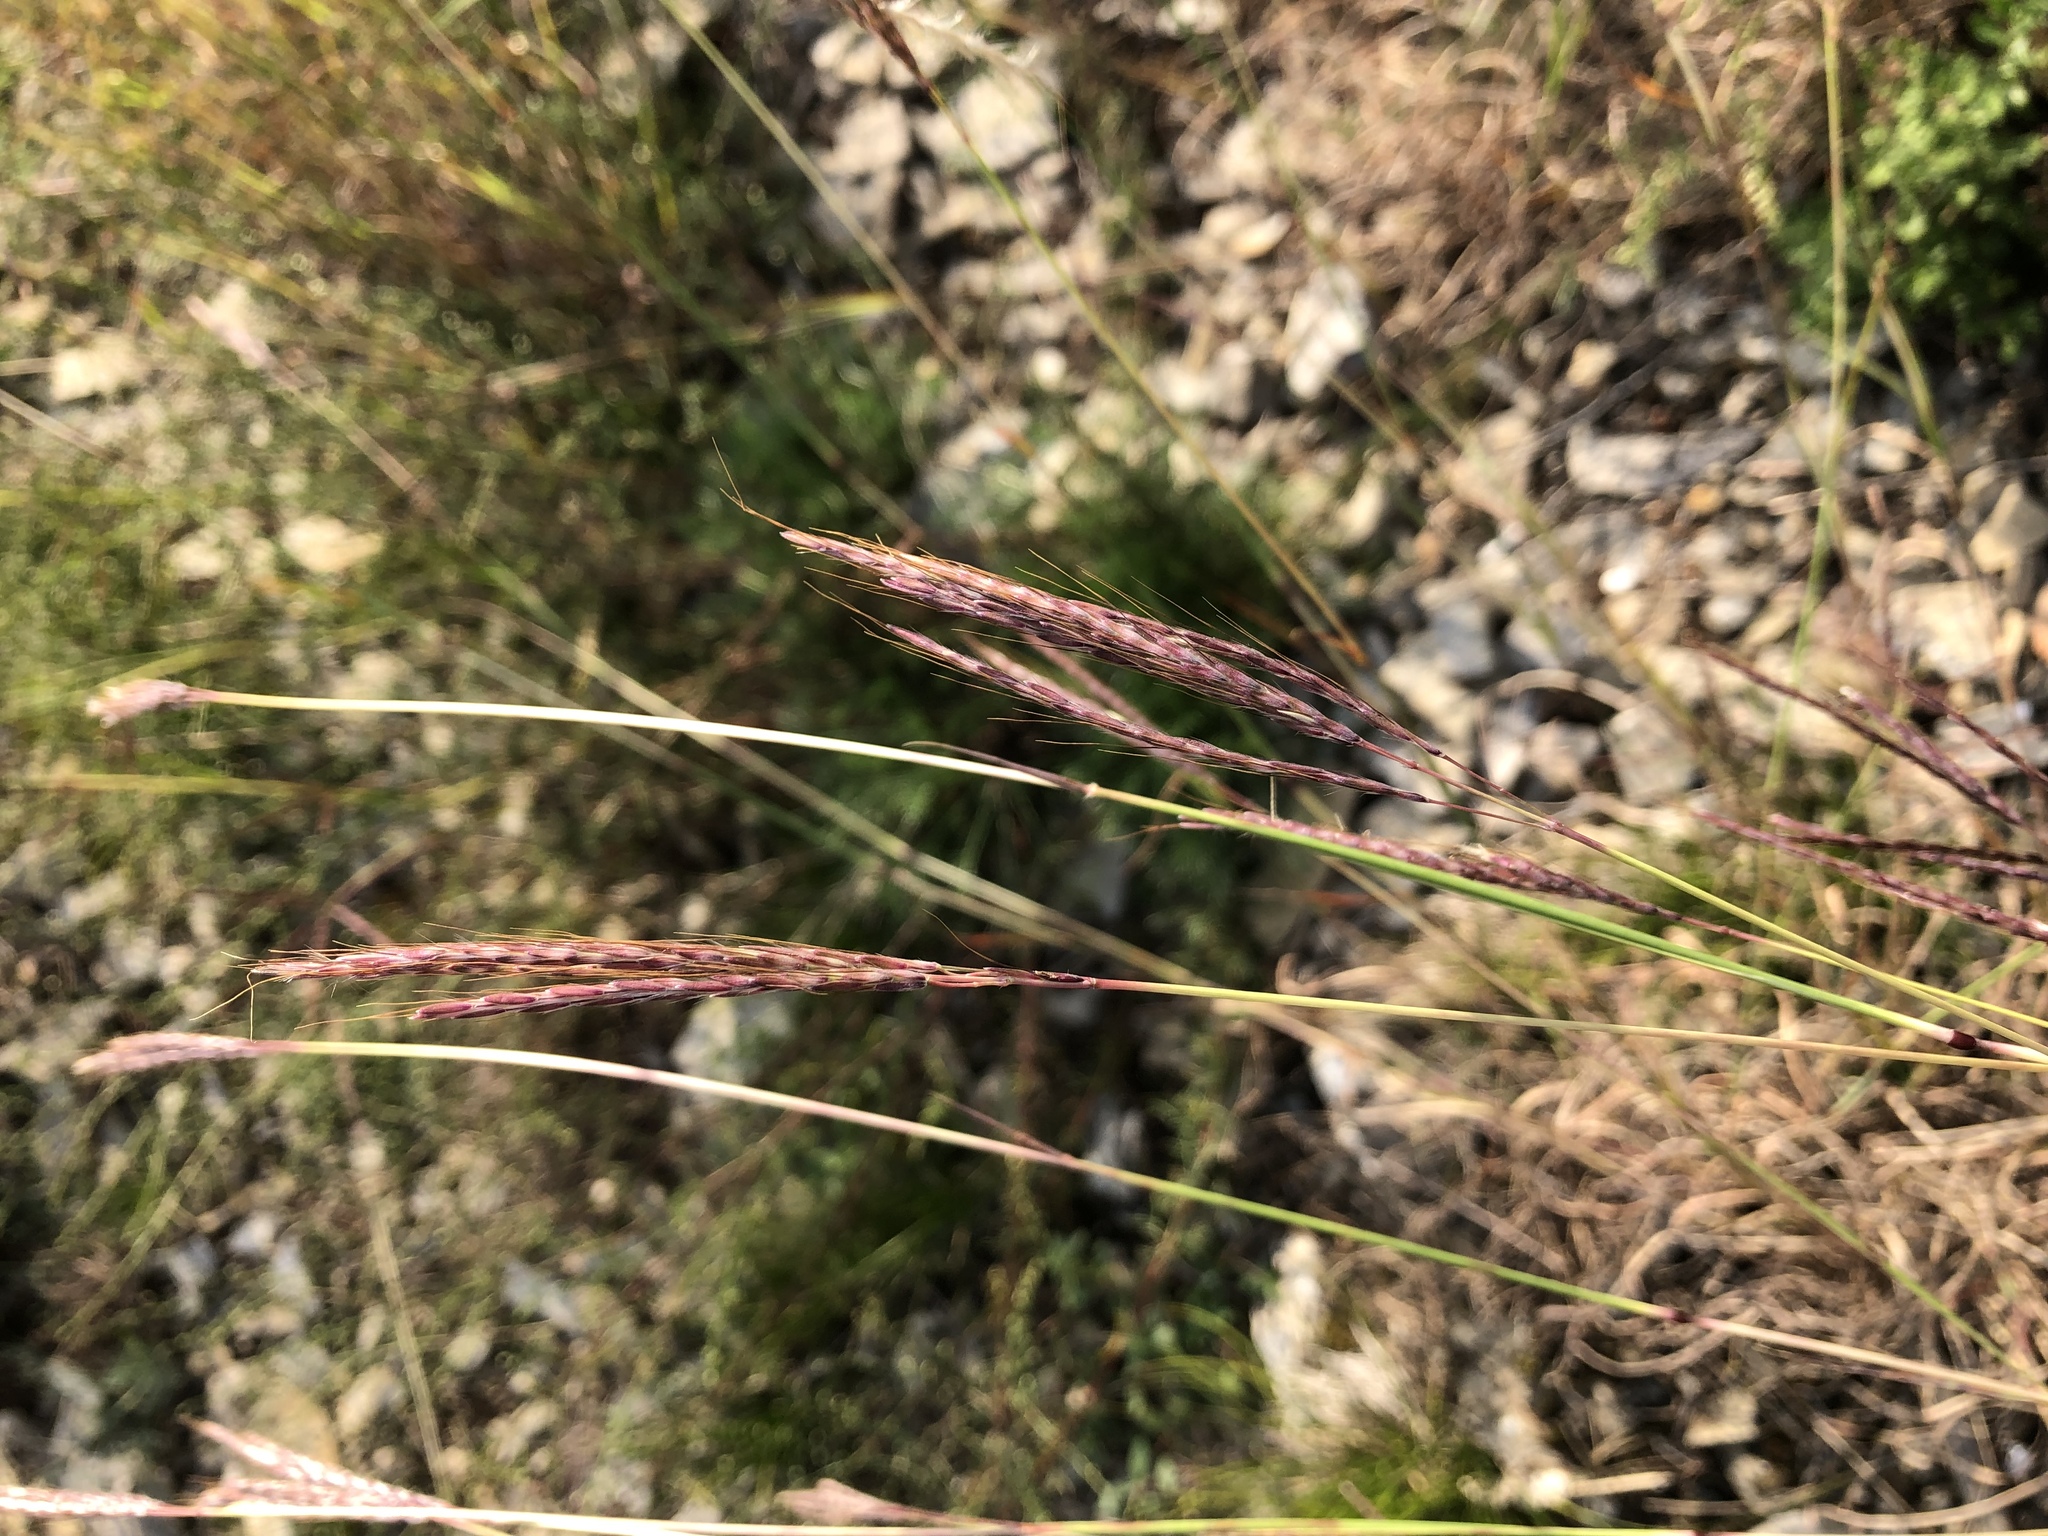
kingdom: Plantae
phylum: Tracheophyta
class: Liliopsida
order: Poales
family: Poaceae
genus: Bothriochloa
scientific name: Bothriochloa ischaemum
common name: Yellow bluestem
